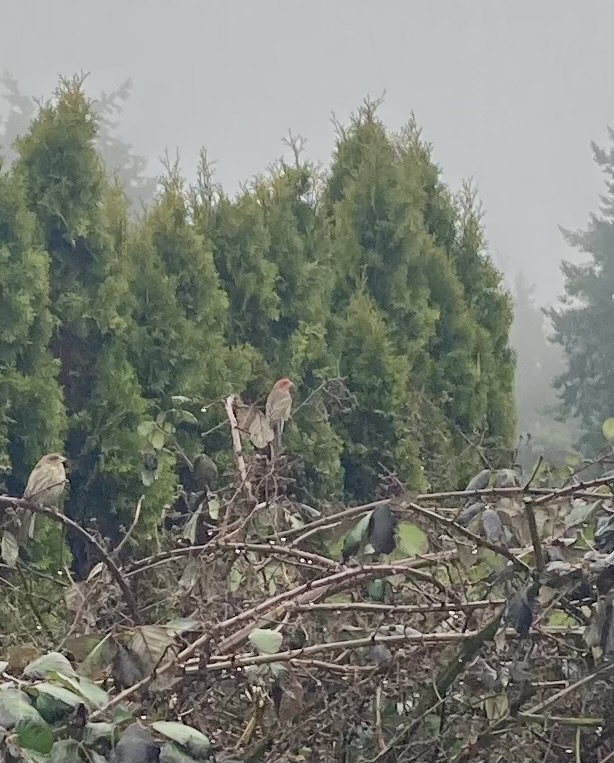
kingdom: Animalia
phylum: Chordata
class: Aves
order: Passeriformes
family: Fringillidae
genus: Haemorhous
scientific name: Haemorhous mexicanus
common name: House finch
